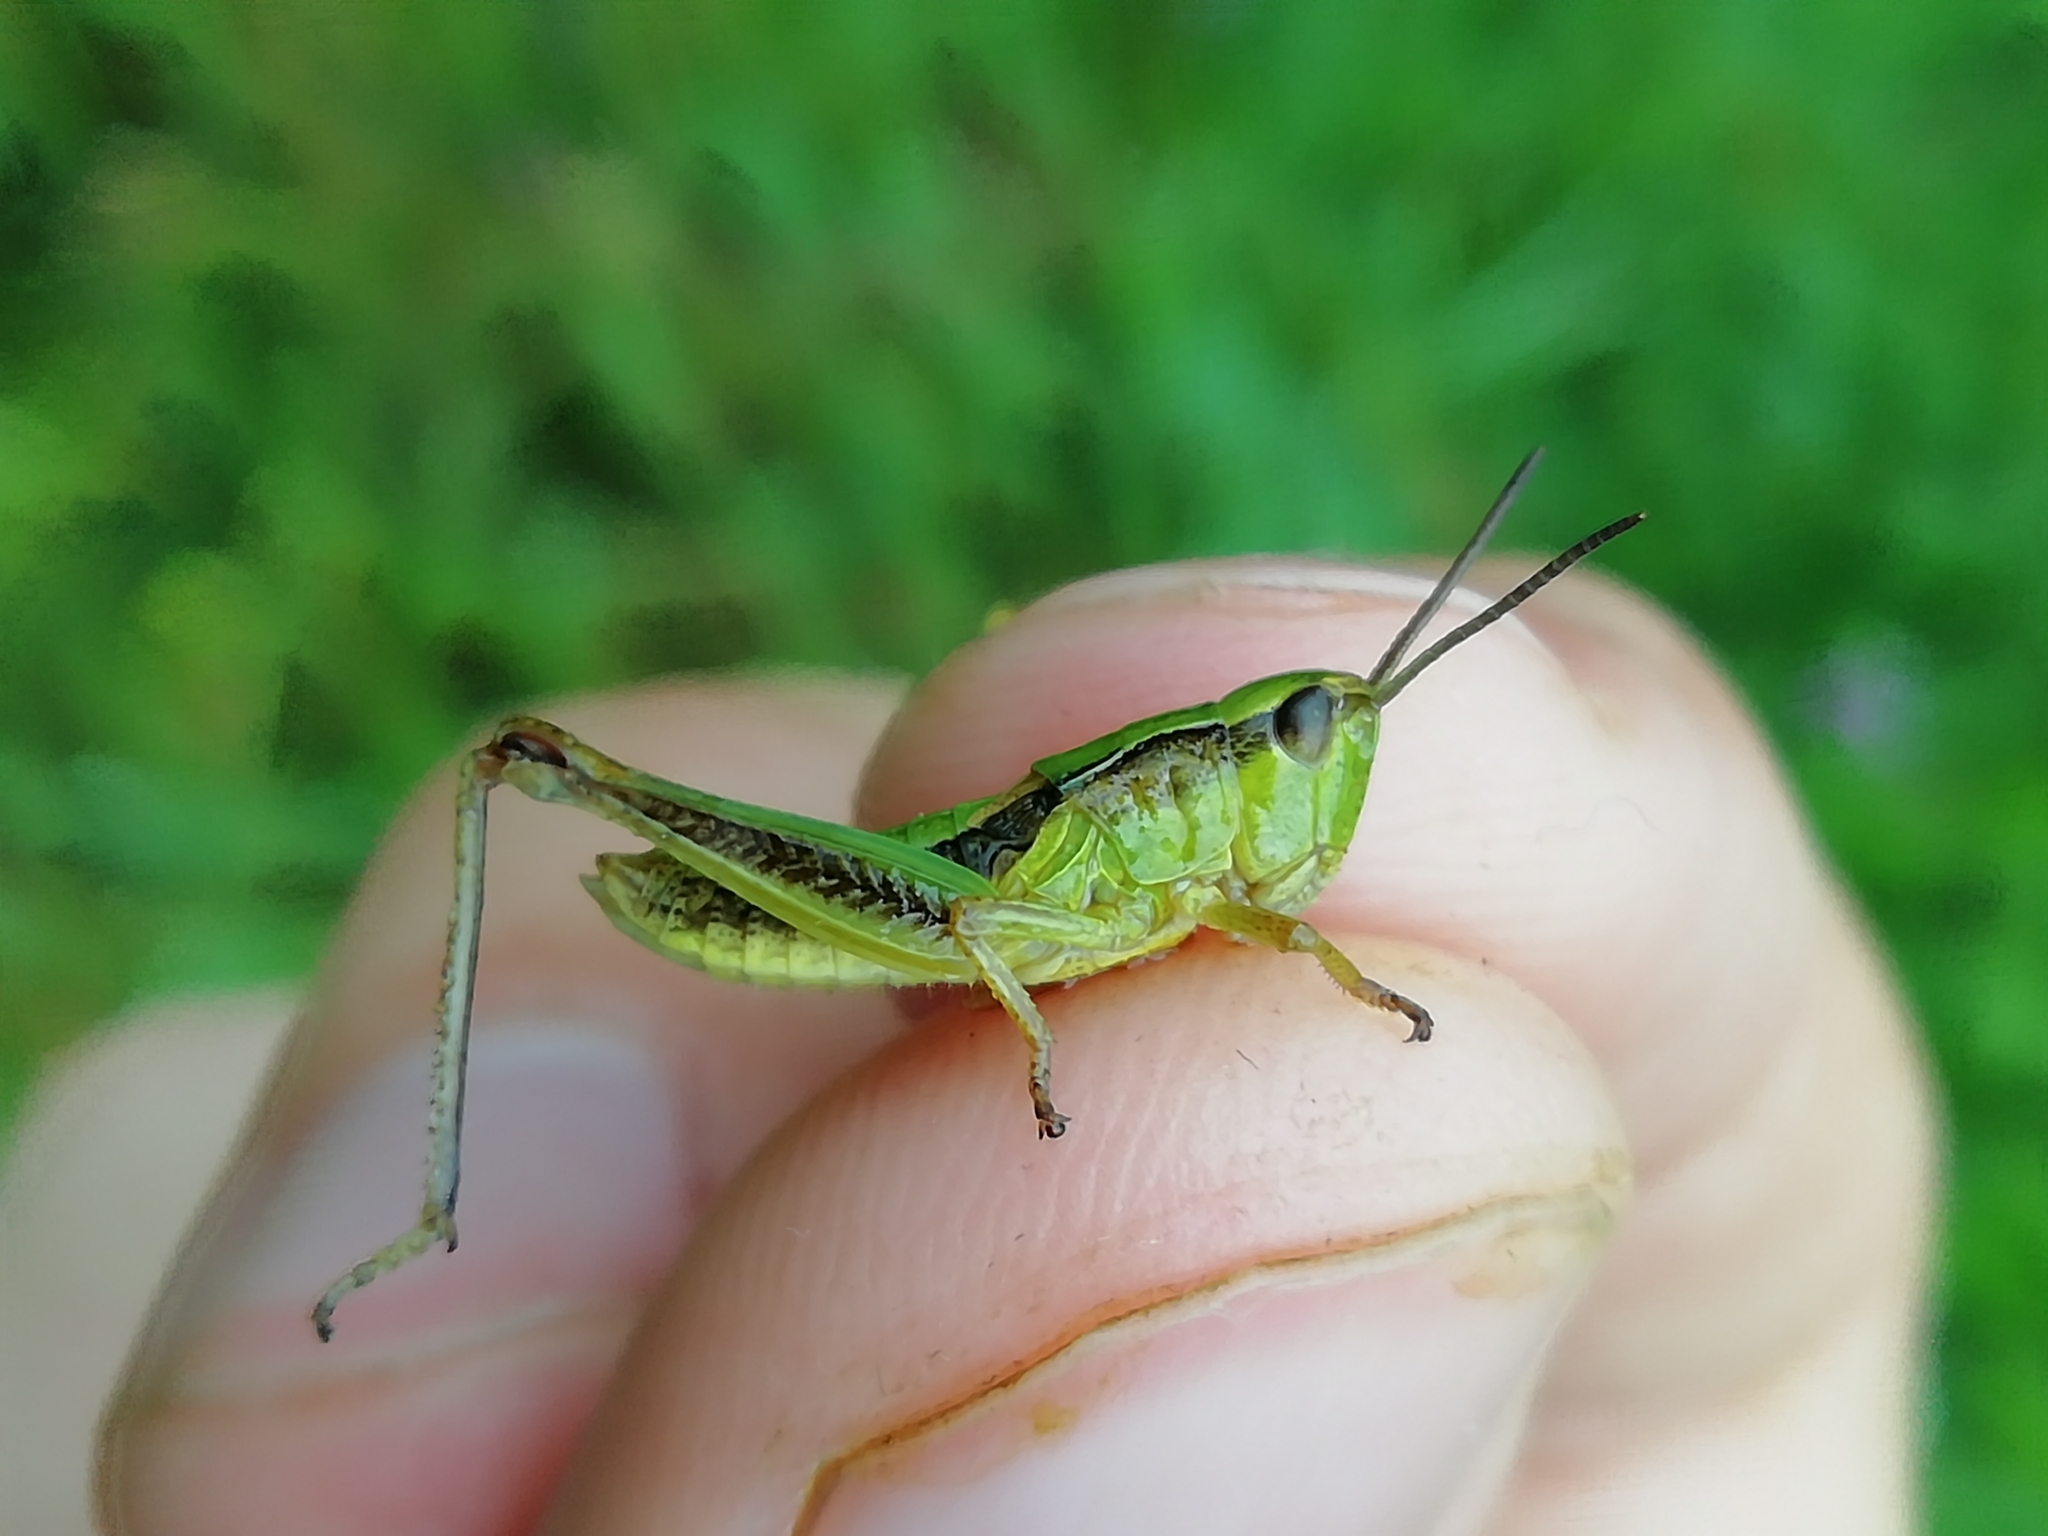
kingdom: Animalia
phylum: Arthropoda
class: Insecta
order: Orthoptera
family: Acrididae
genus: Chorthippus
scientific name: Chorthippus fallax
